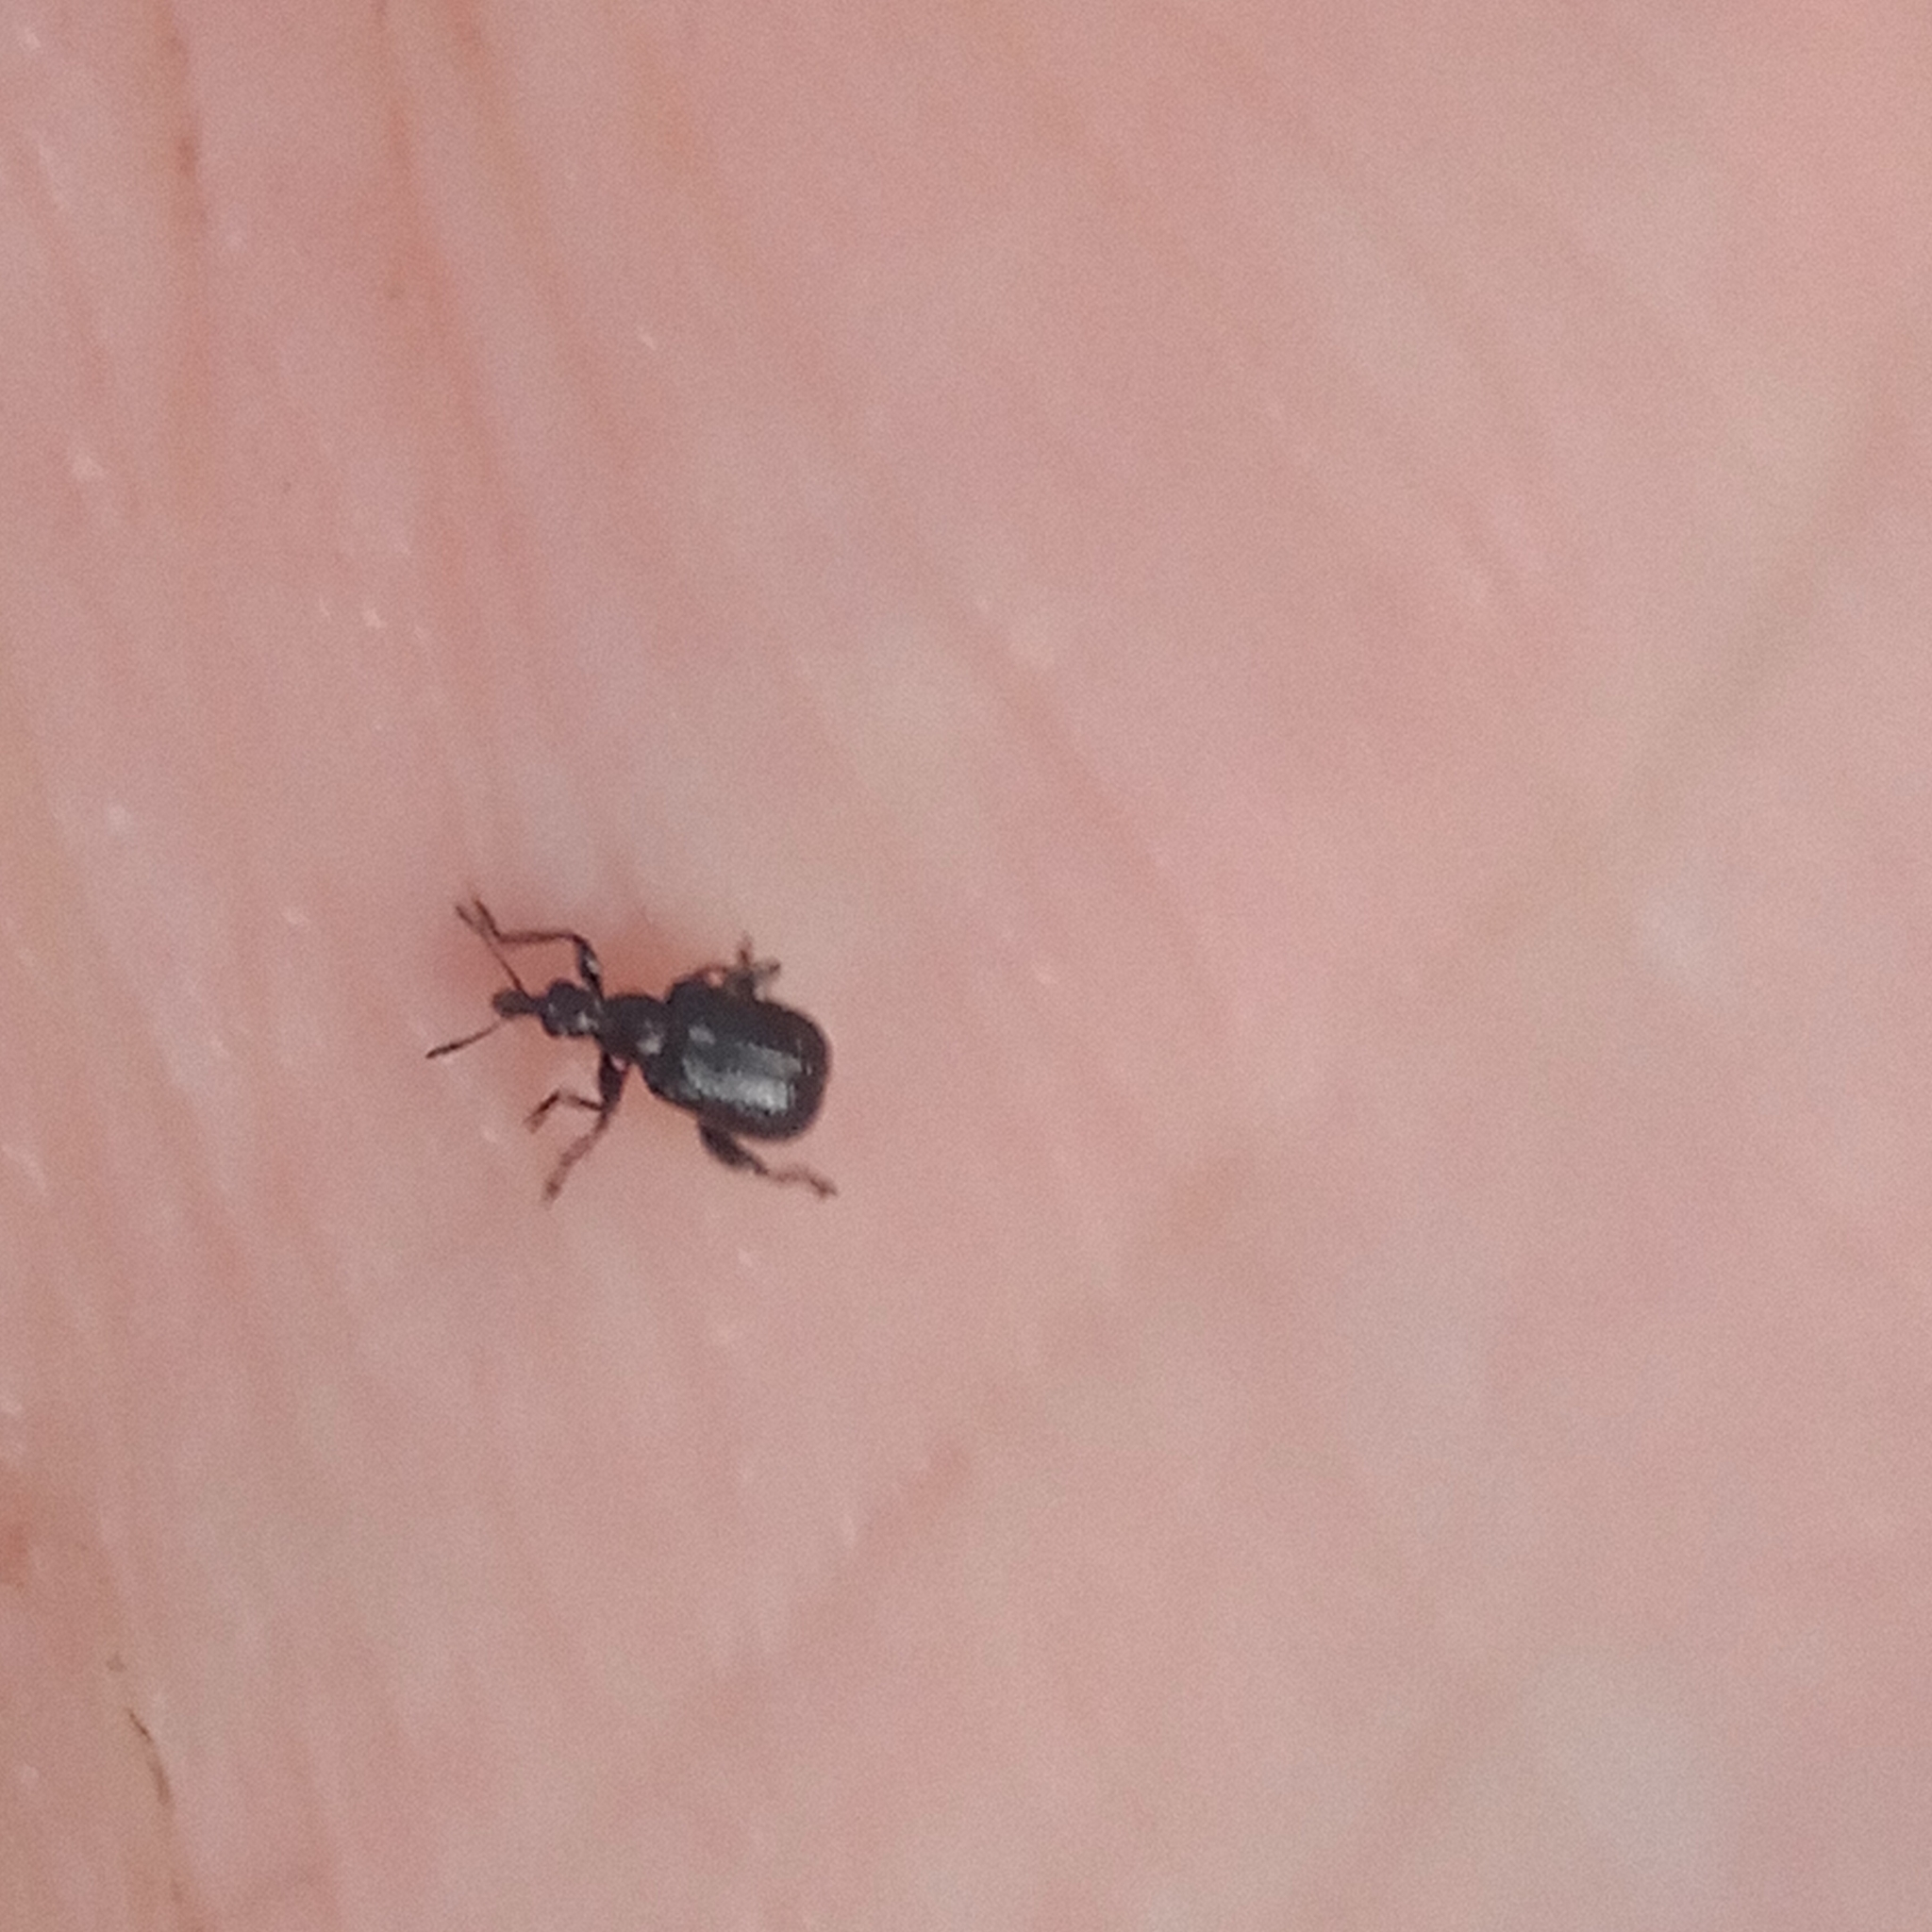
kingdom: Animalia
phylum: Arthropoda
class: Insecta
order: Coleoptera
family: Attelabidae
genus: Deporaus
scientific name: Deporaus betulae
